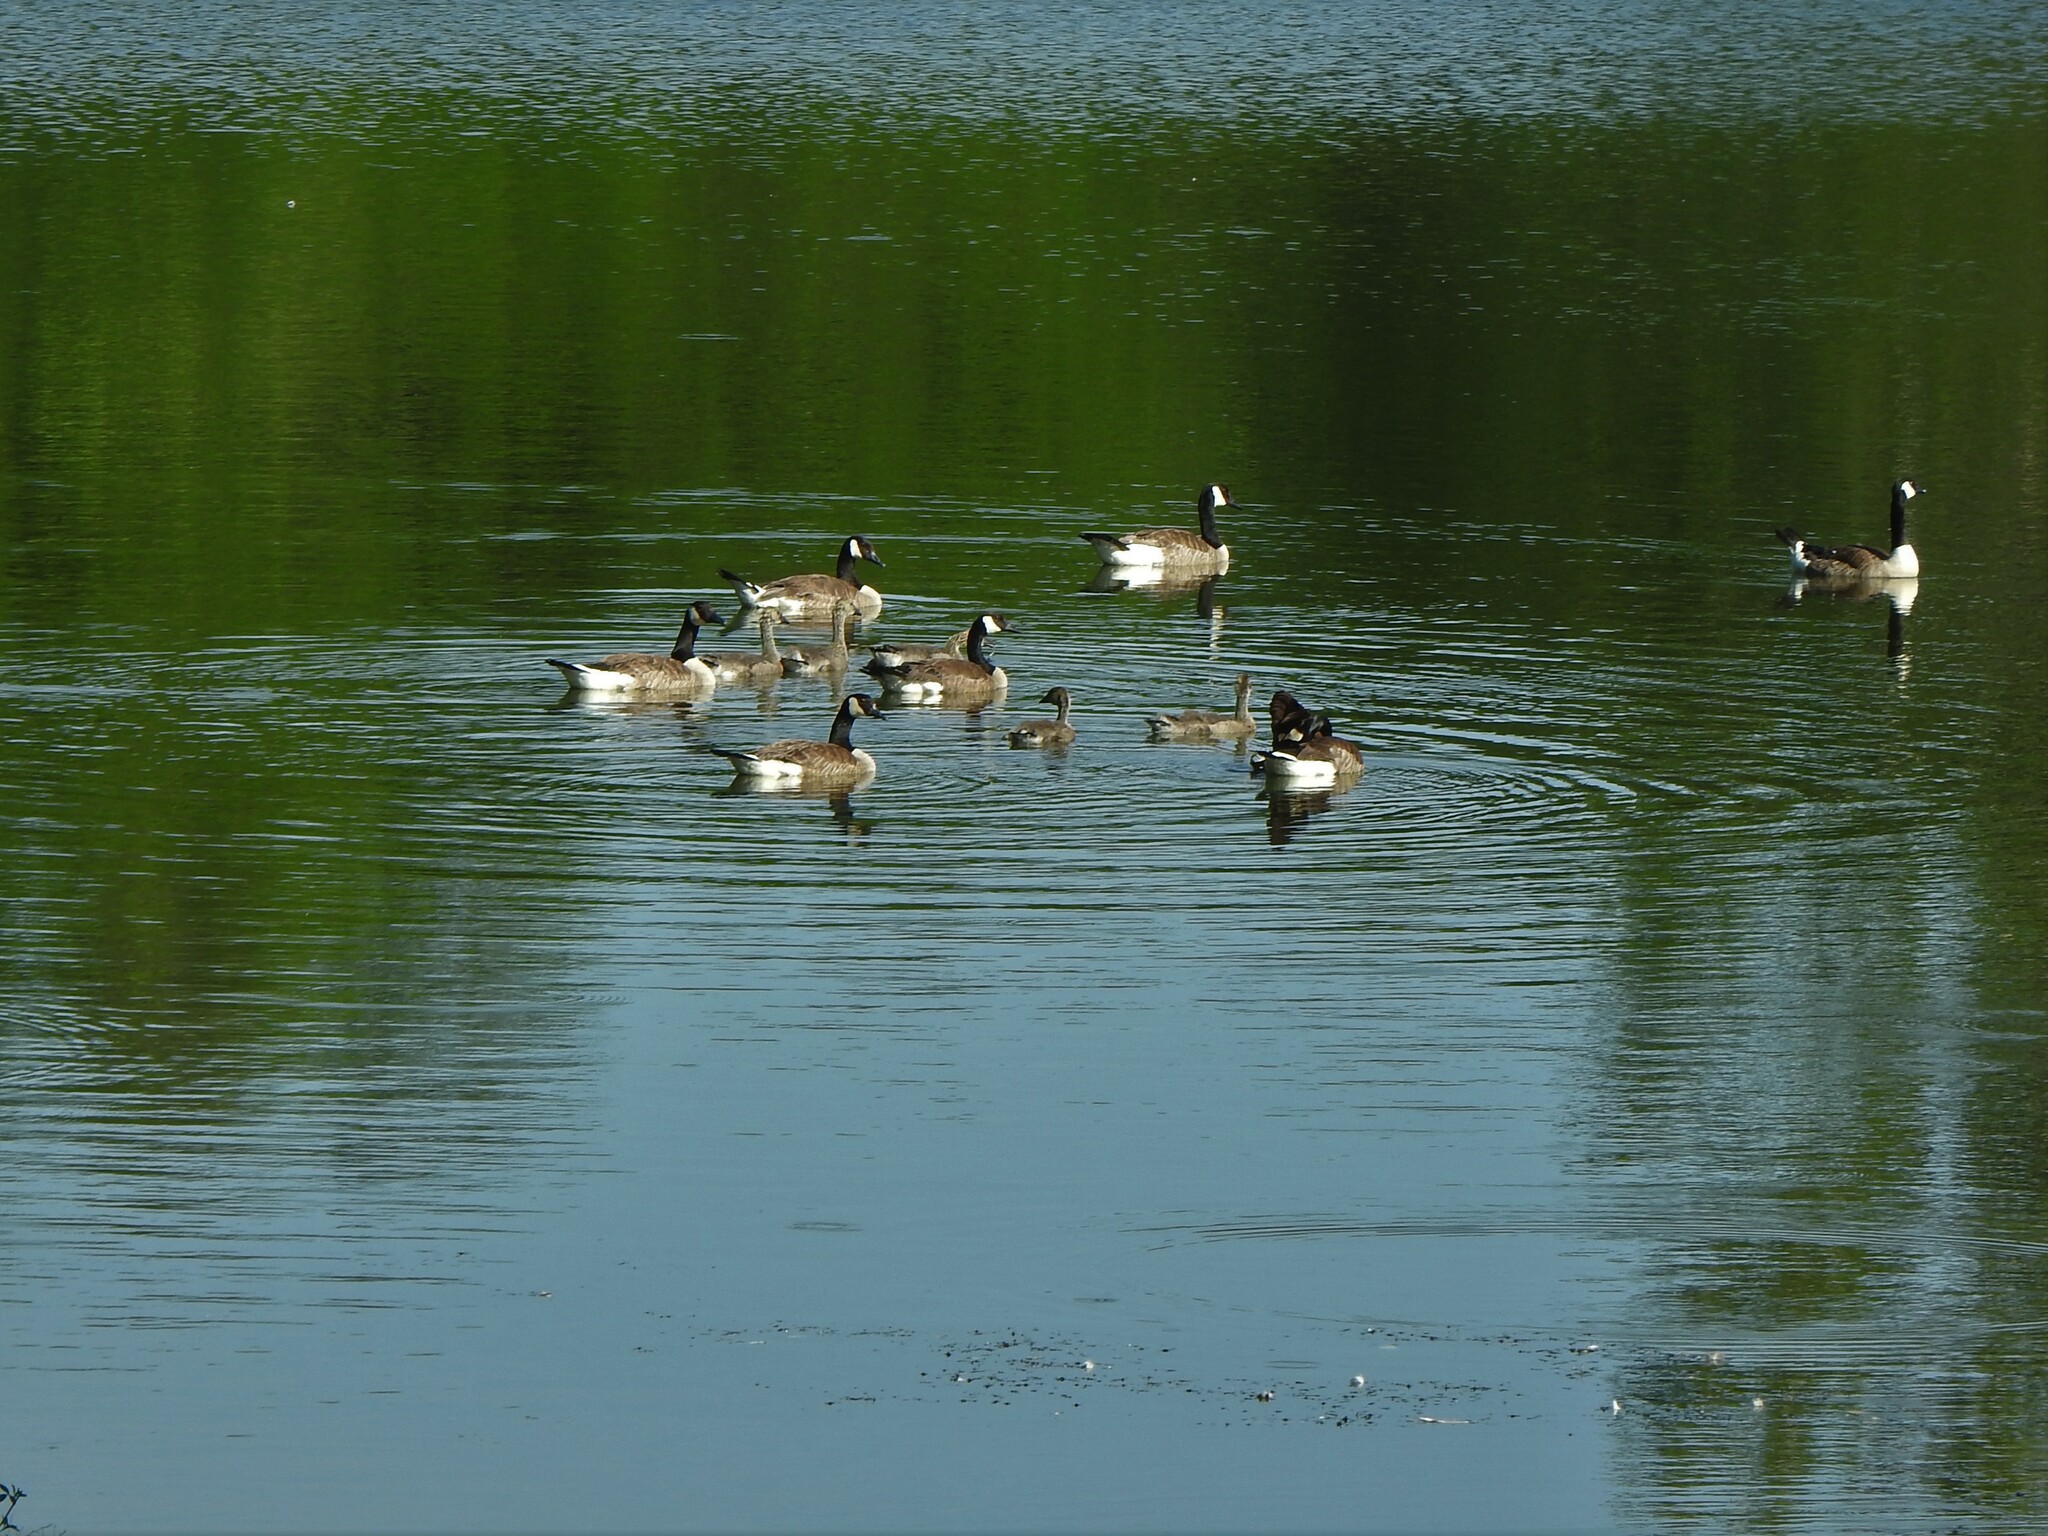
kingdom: Animalia
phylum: Chordata
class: Aves
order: Anseriformes
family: Anatidae
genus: Branta
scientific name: Branta canadensis
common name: Canada goose
